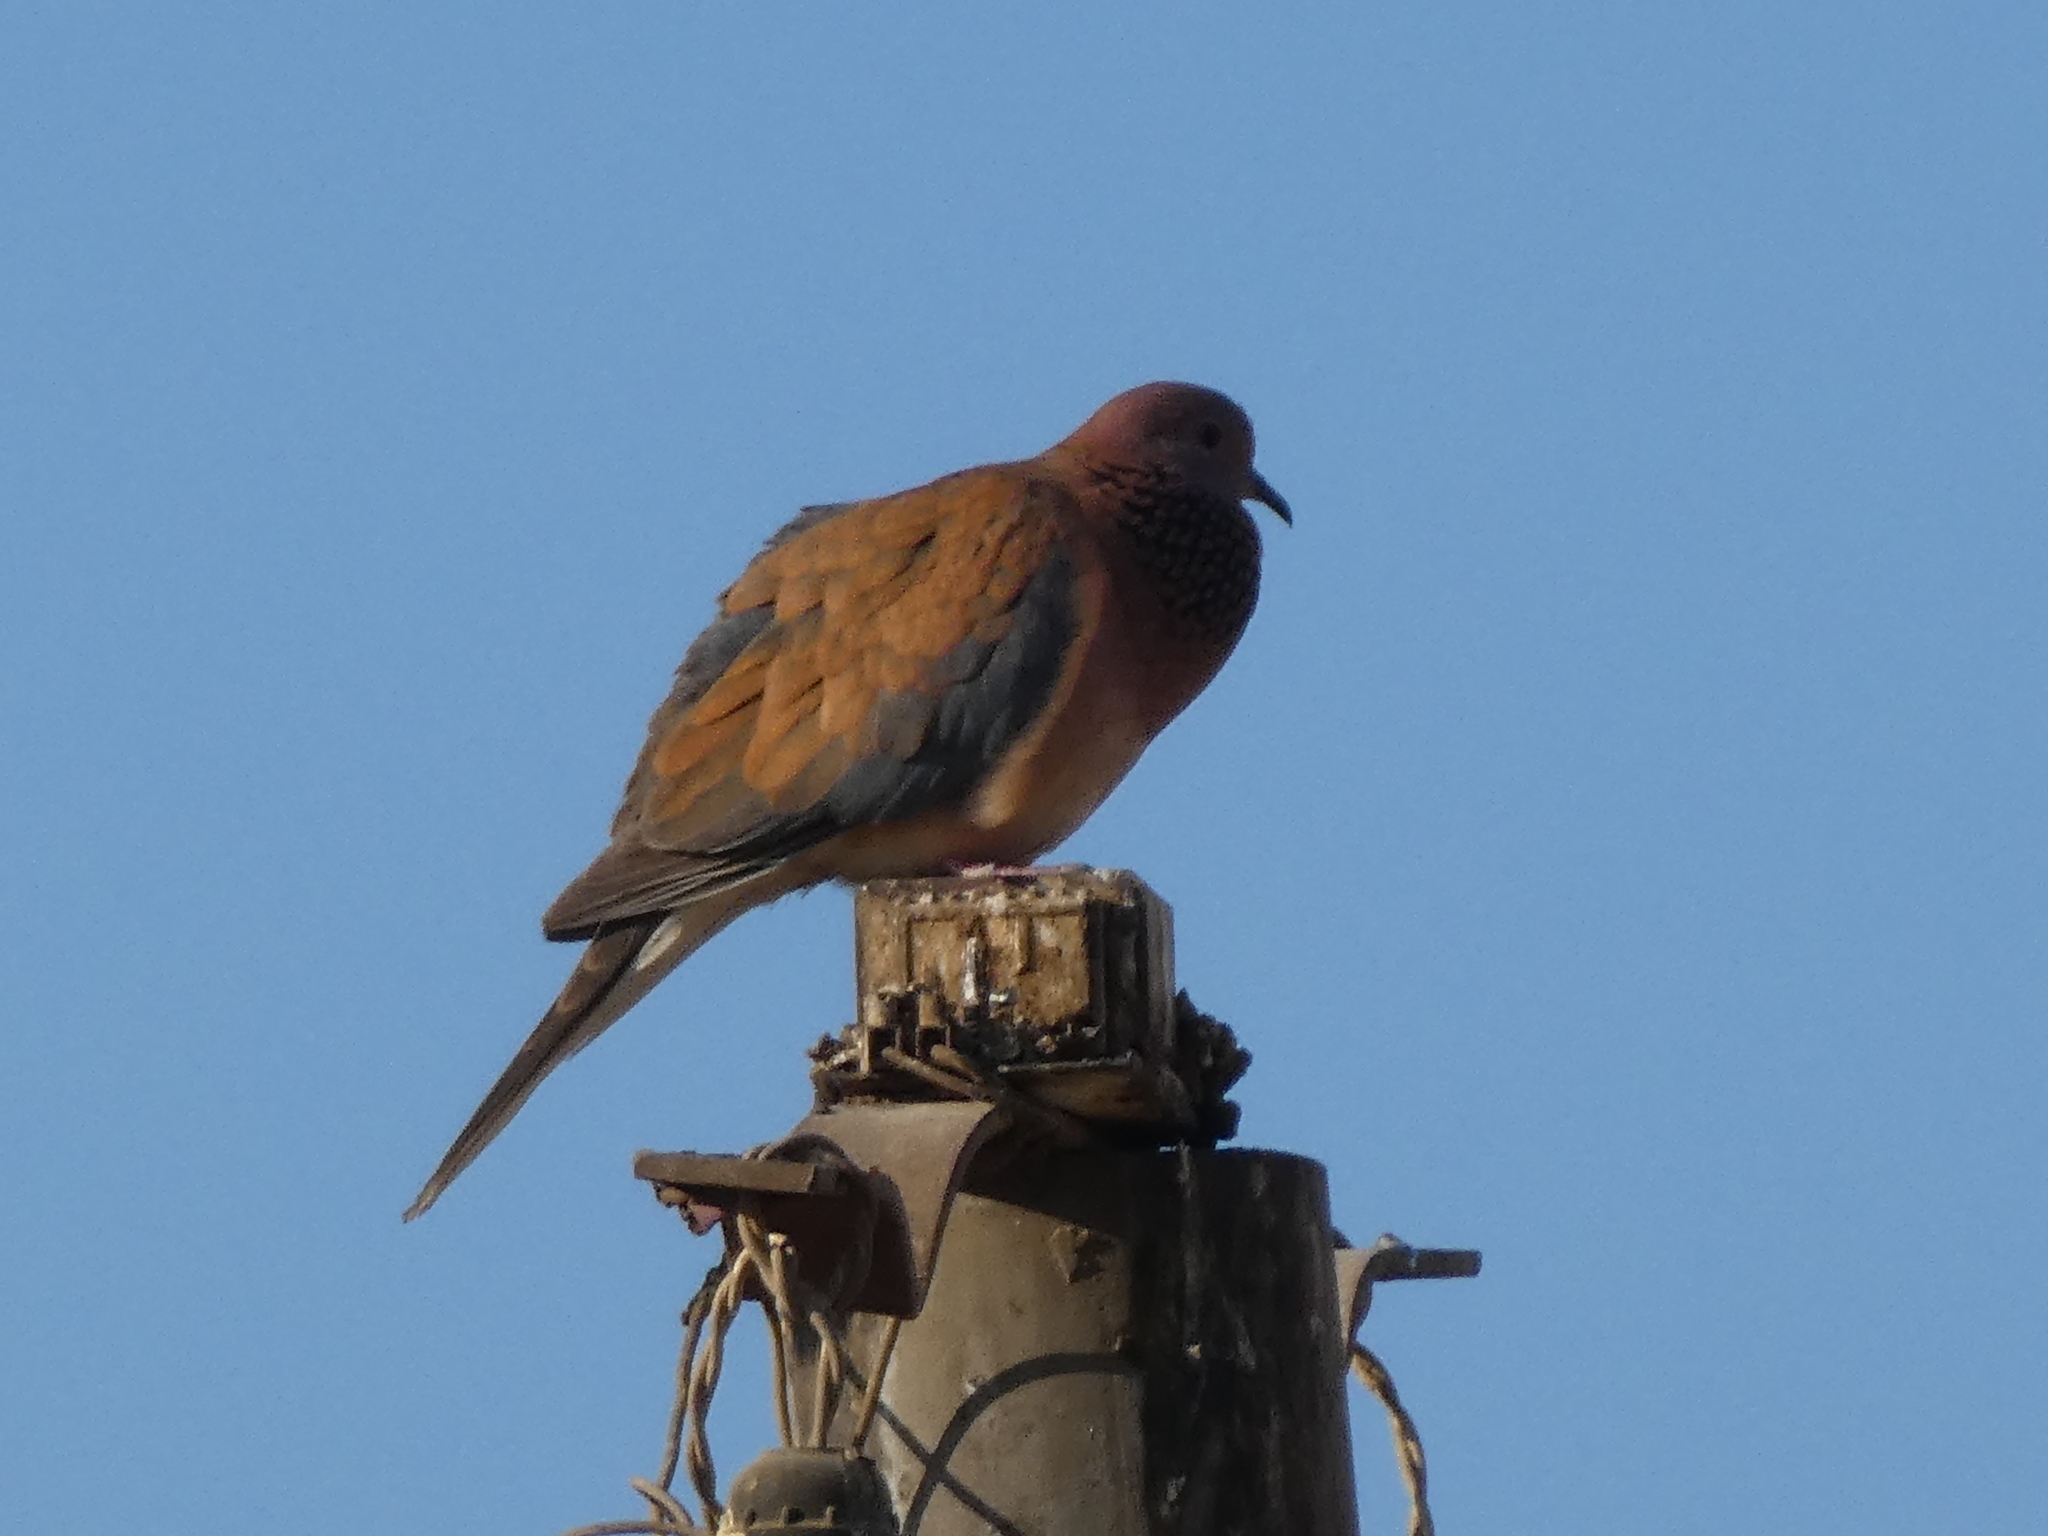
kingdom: Animalia
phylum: Chordata
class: Aves
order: Columbiformes
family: Columbidae
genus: Spilopelia
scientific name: Spilopelia senegalensis
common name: Laughing dove
